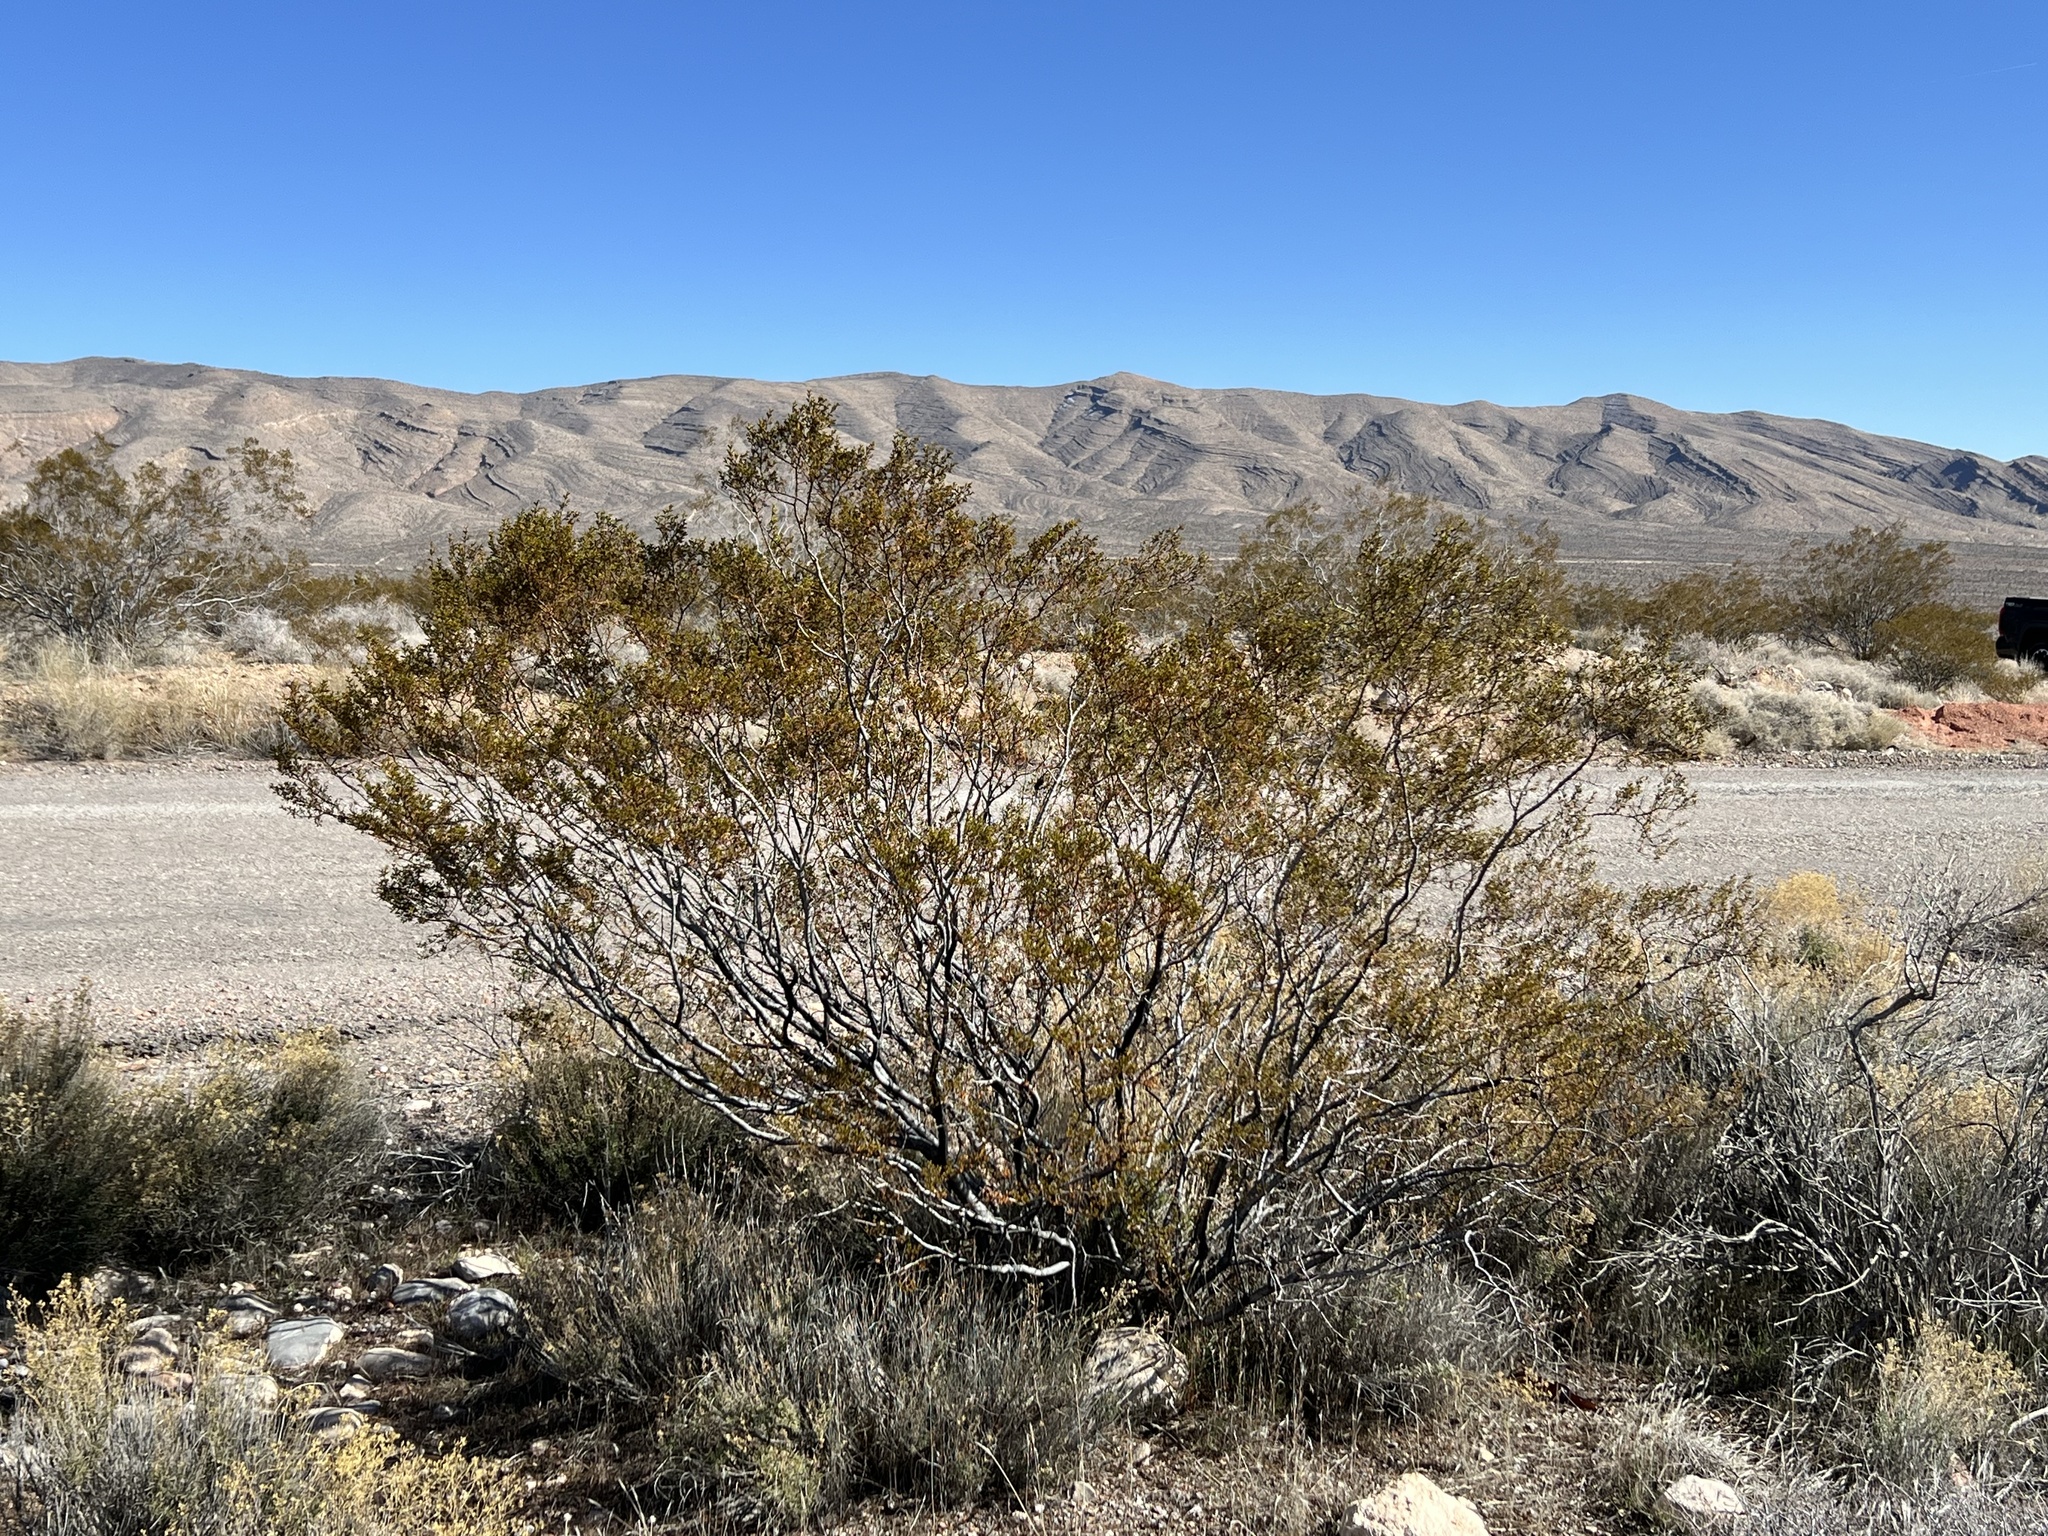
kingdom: Plantae
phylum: Tracheophyta
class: Magnoliopsida
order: Zygophyllales
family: Zygophyllaceae
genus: Larrea
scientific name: Larrea tridentata
